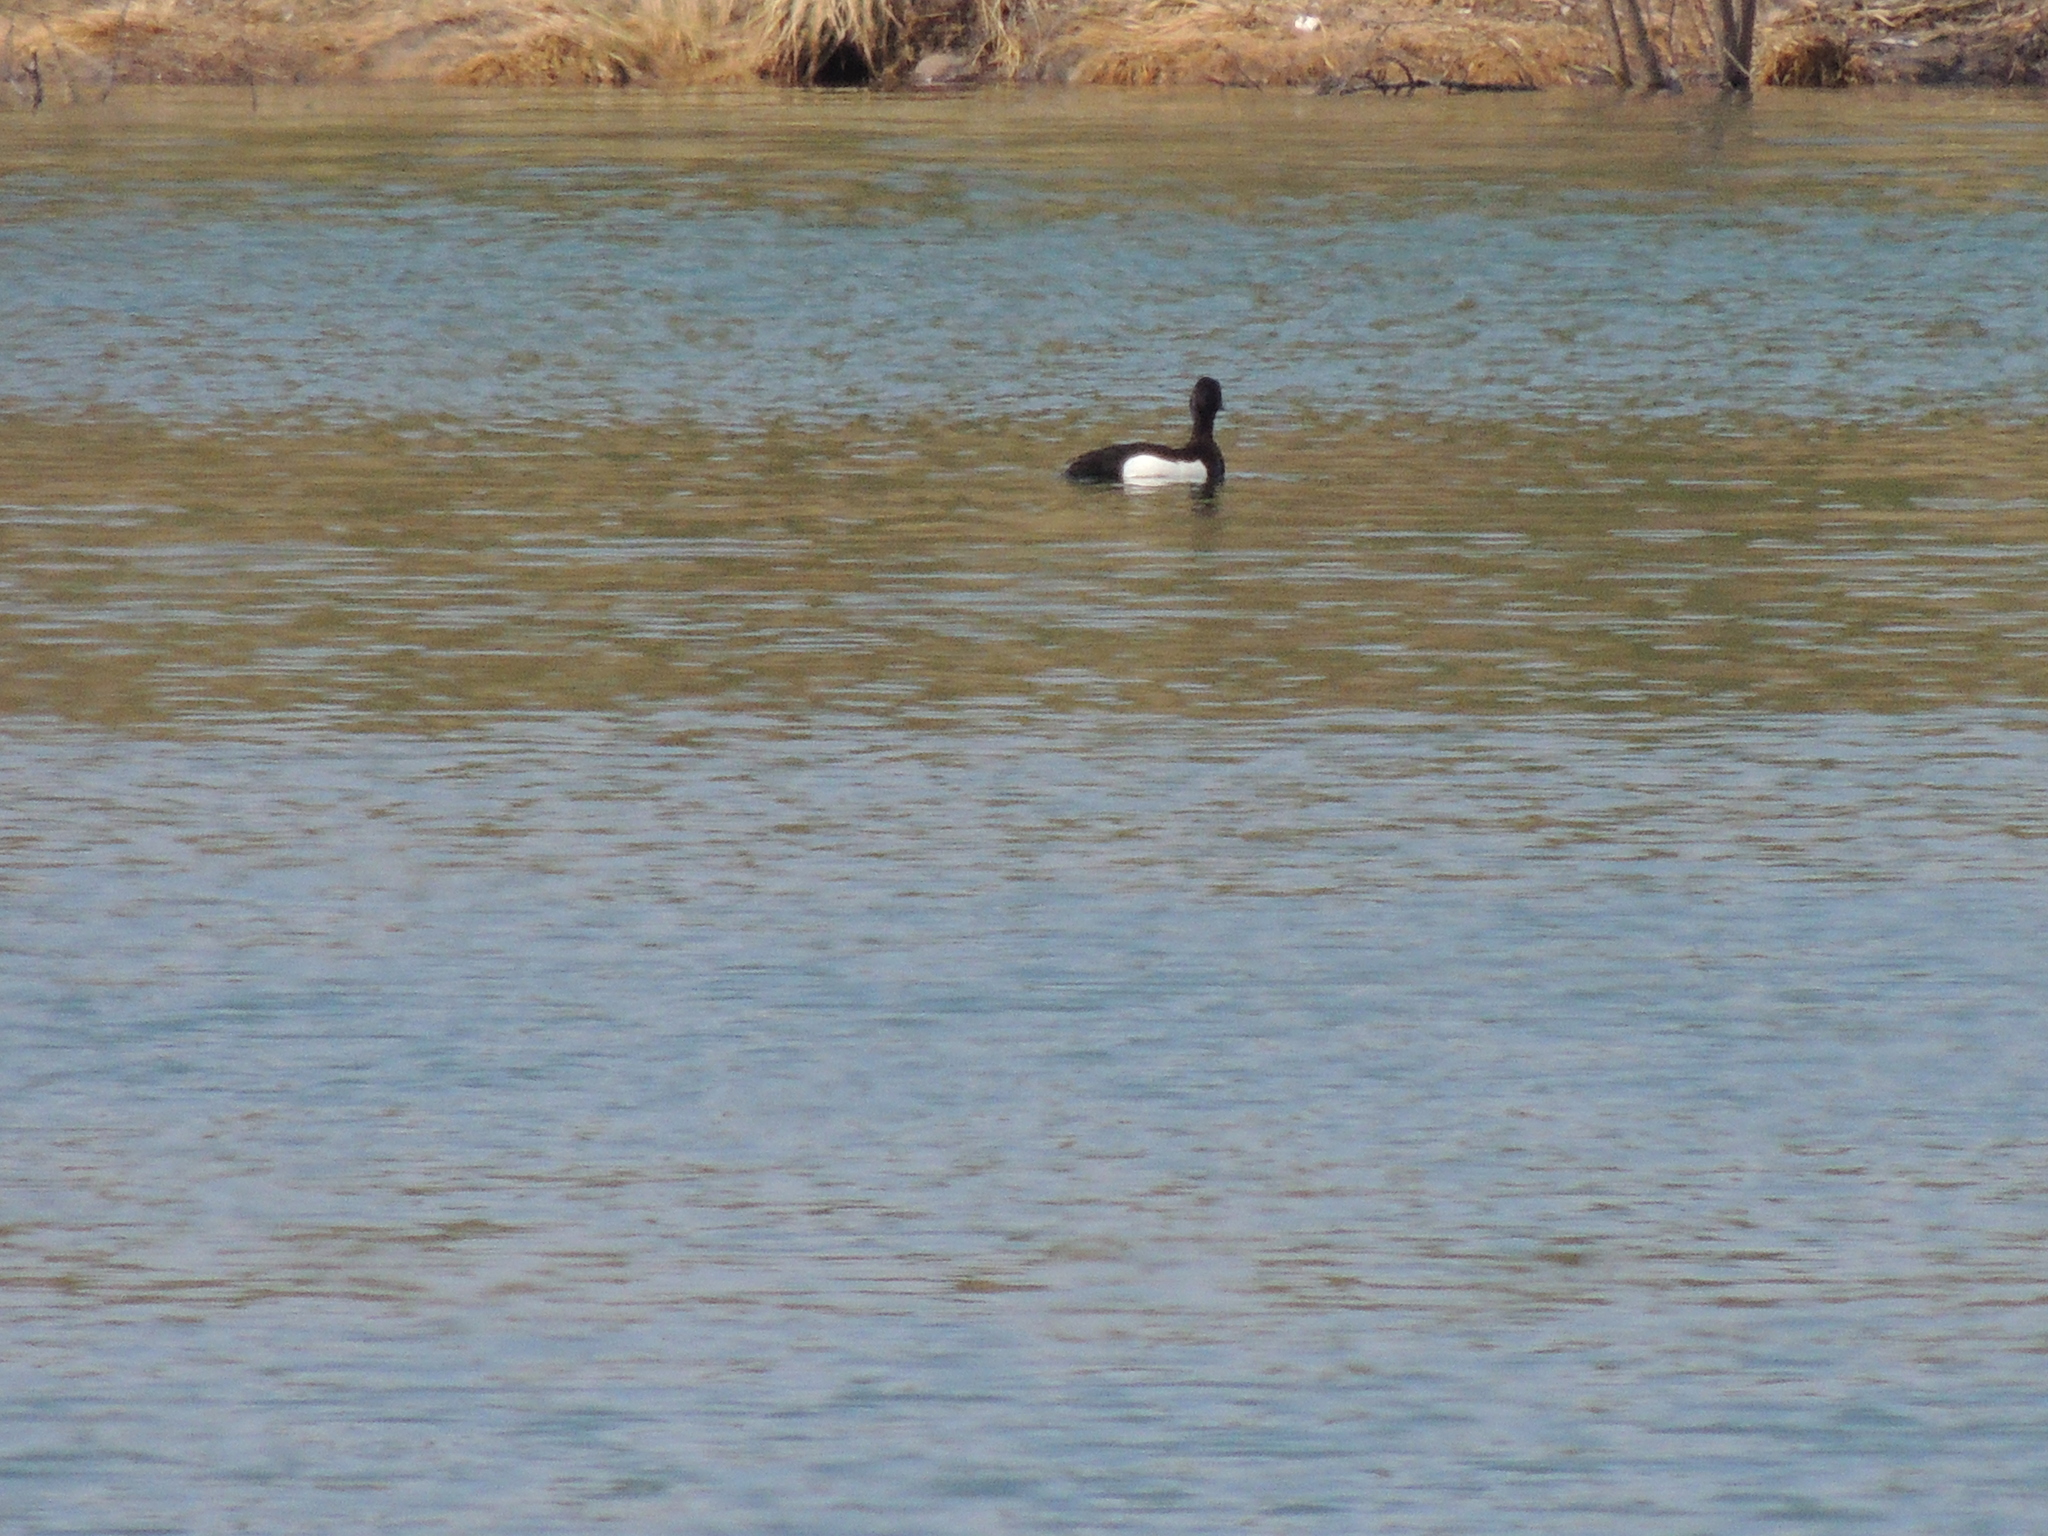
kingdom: Animalia
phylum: Chordata
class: Aves
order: Anseriformes
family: Anatidae
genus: Aythya
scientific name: Aythya fuligula
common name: Tufted duck
